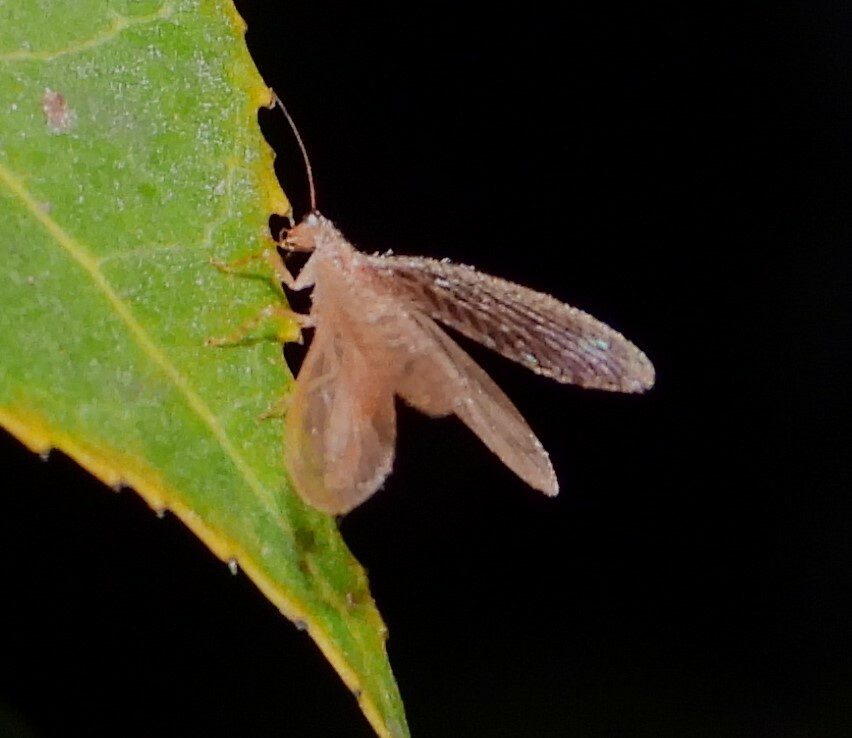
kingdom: Animalia
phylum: Arthropoda
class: Insecta
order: Neuroptera
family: Hemerobiidae
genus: Micromus
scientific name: Micromus subanticus
